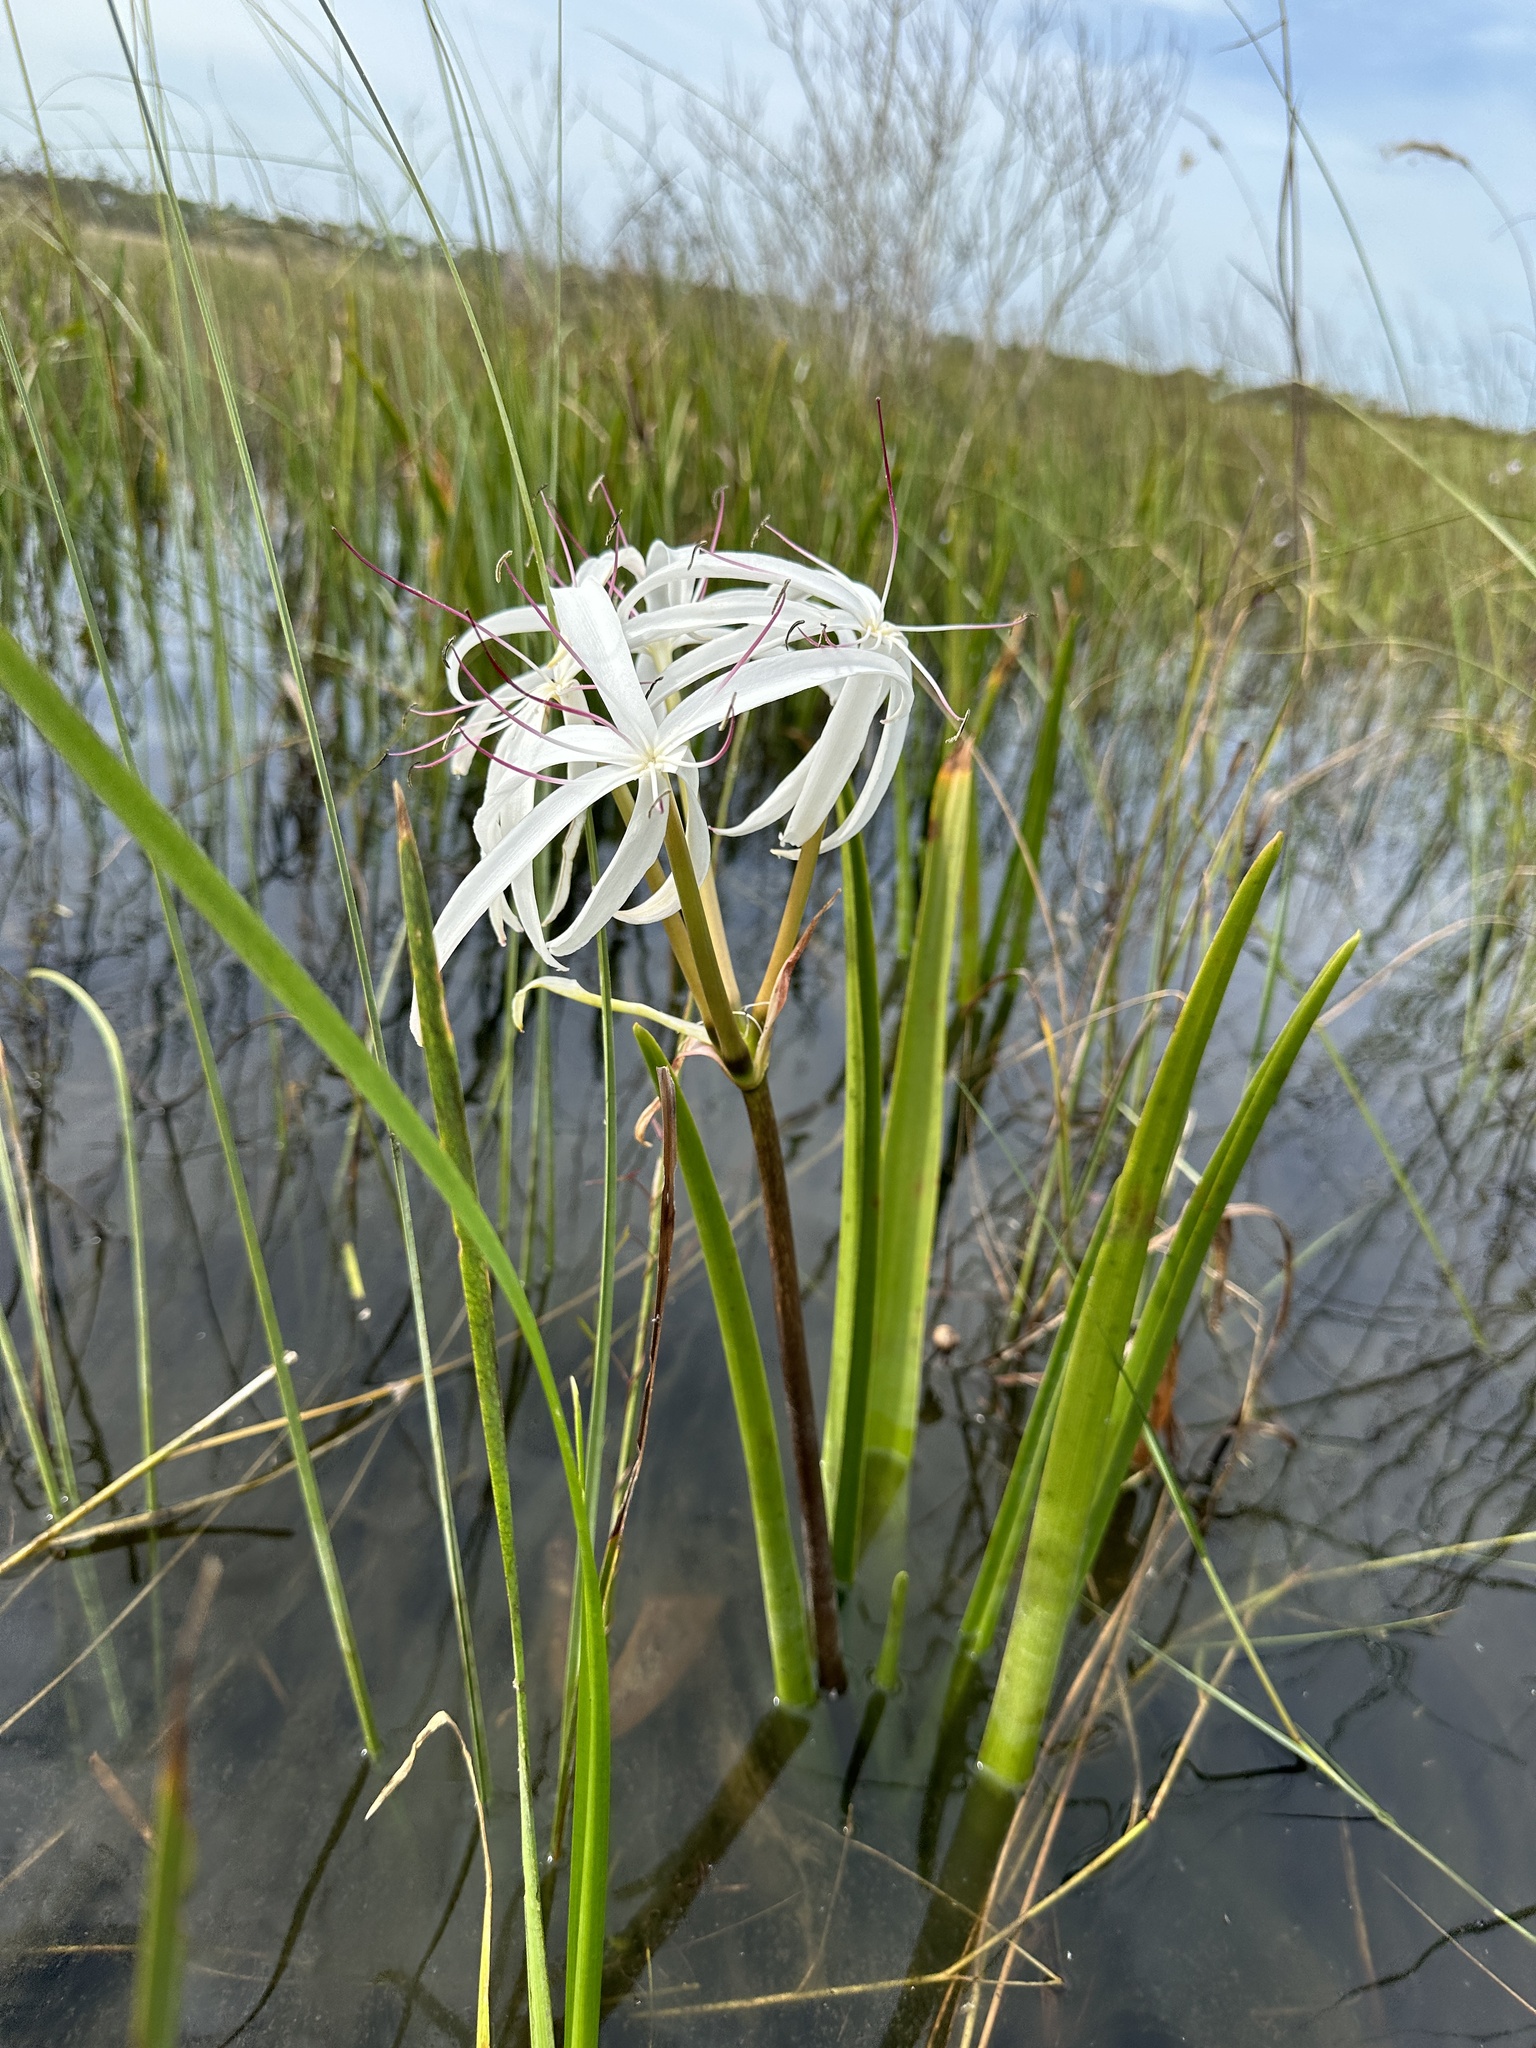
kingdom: Plantae
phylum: Tracheophyta
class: Liliopsida
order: Asparagales
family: Amaryllidaceae
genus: Crinum
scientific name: Crinum americanum
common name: Florida swamp-lily
